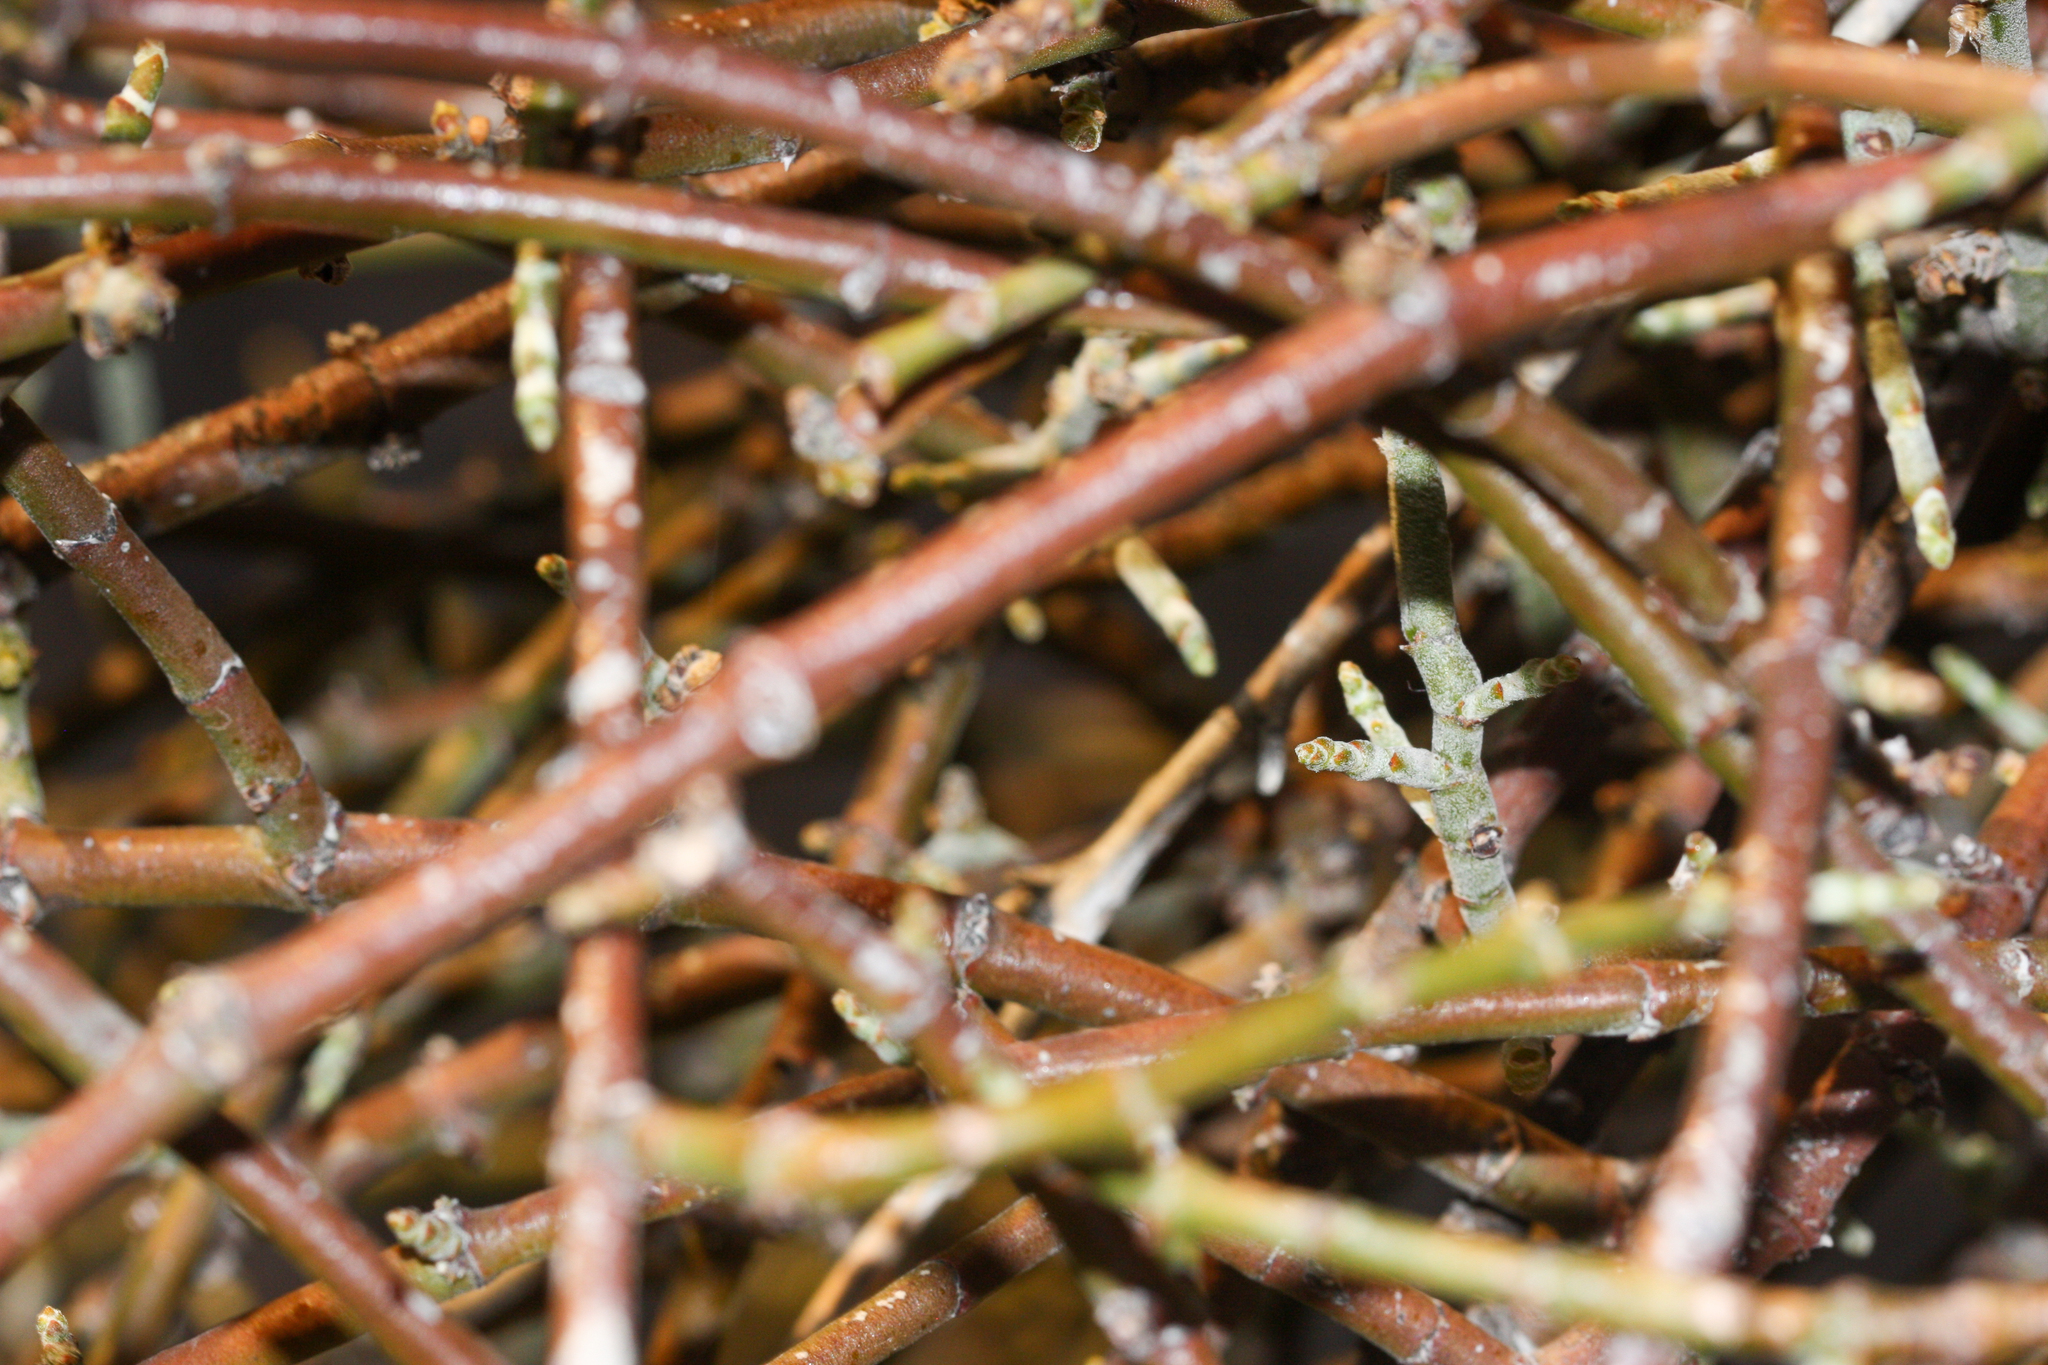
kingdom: Plantae
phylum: Tracheophyta
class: Magnoliopsida
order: Santalales
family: Viscaceae
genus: Phoradendron
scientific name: Phoradendron californicum
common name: Acacia mistletoe
